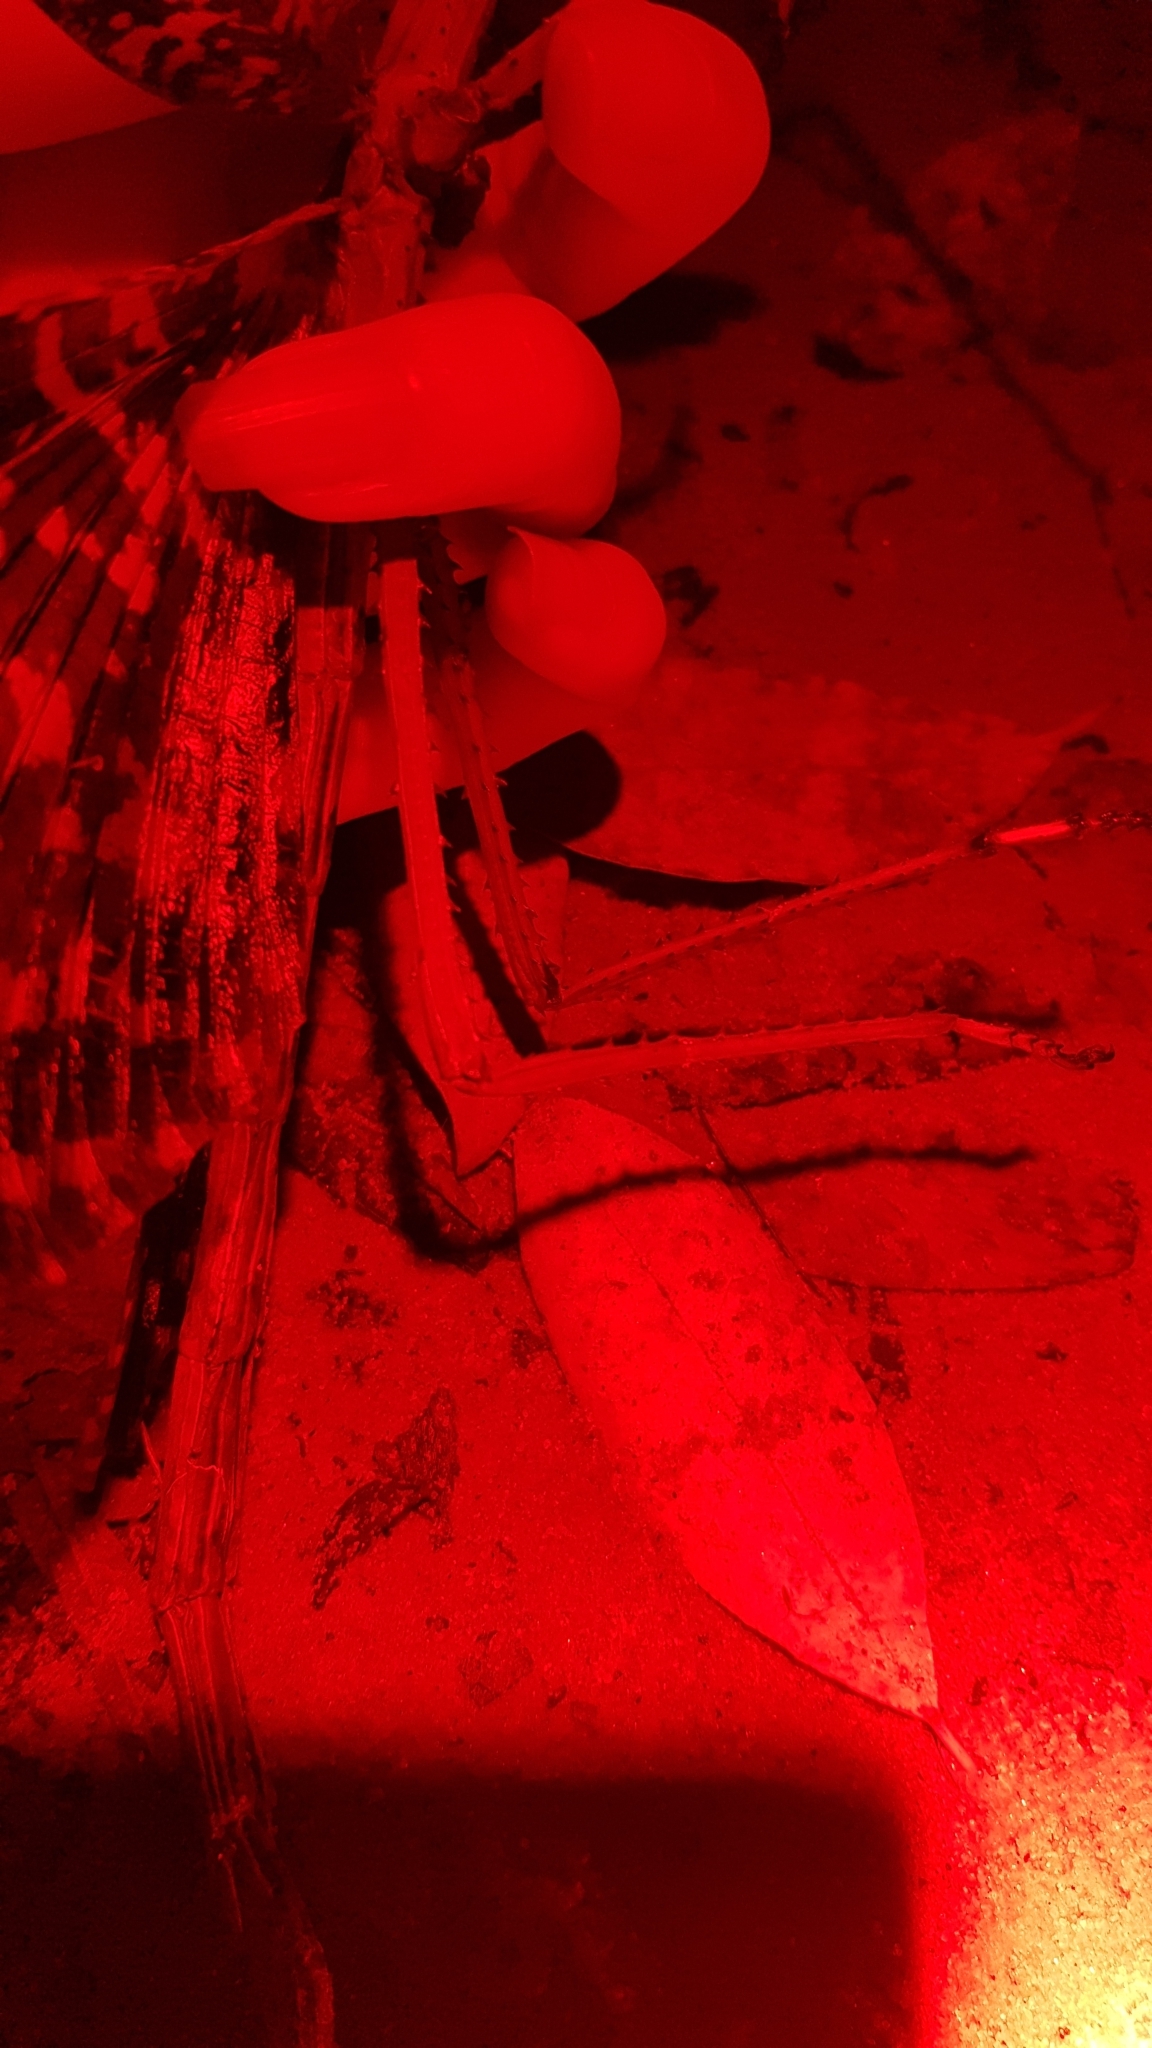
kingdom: Animalia
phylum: Arthropoda
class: Insecta
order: Phasmida
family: Phasmatidae
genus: Acrophylla
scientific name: Acrophylla titan
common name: Titan stick insect
